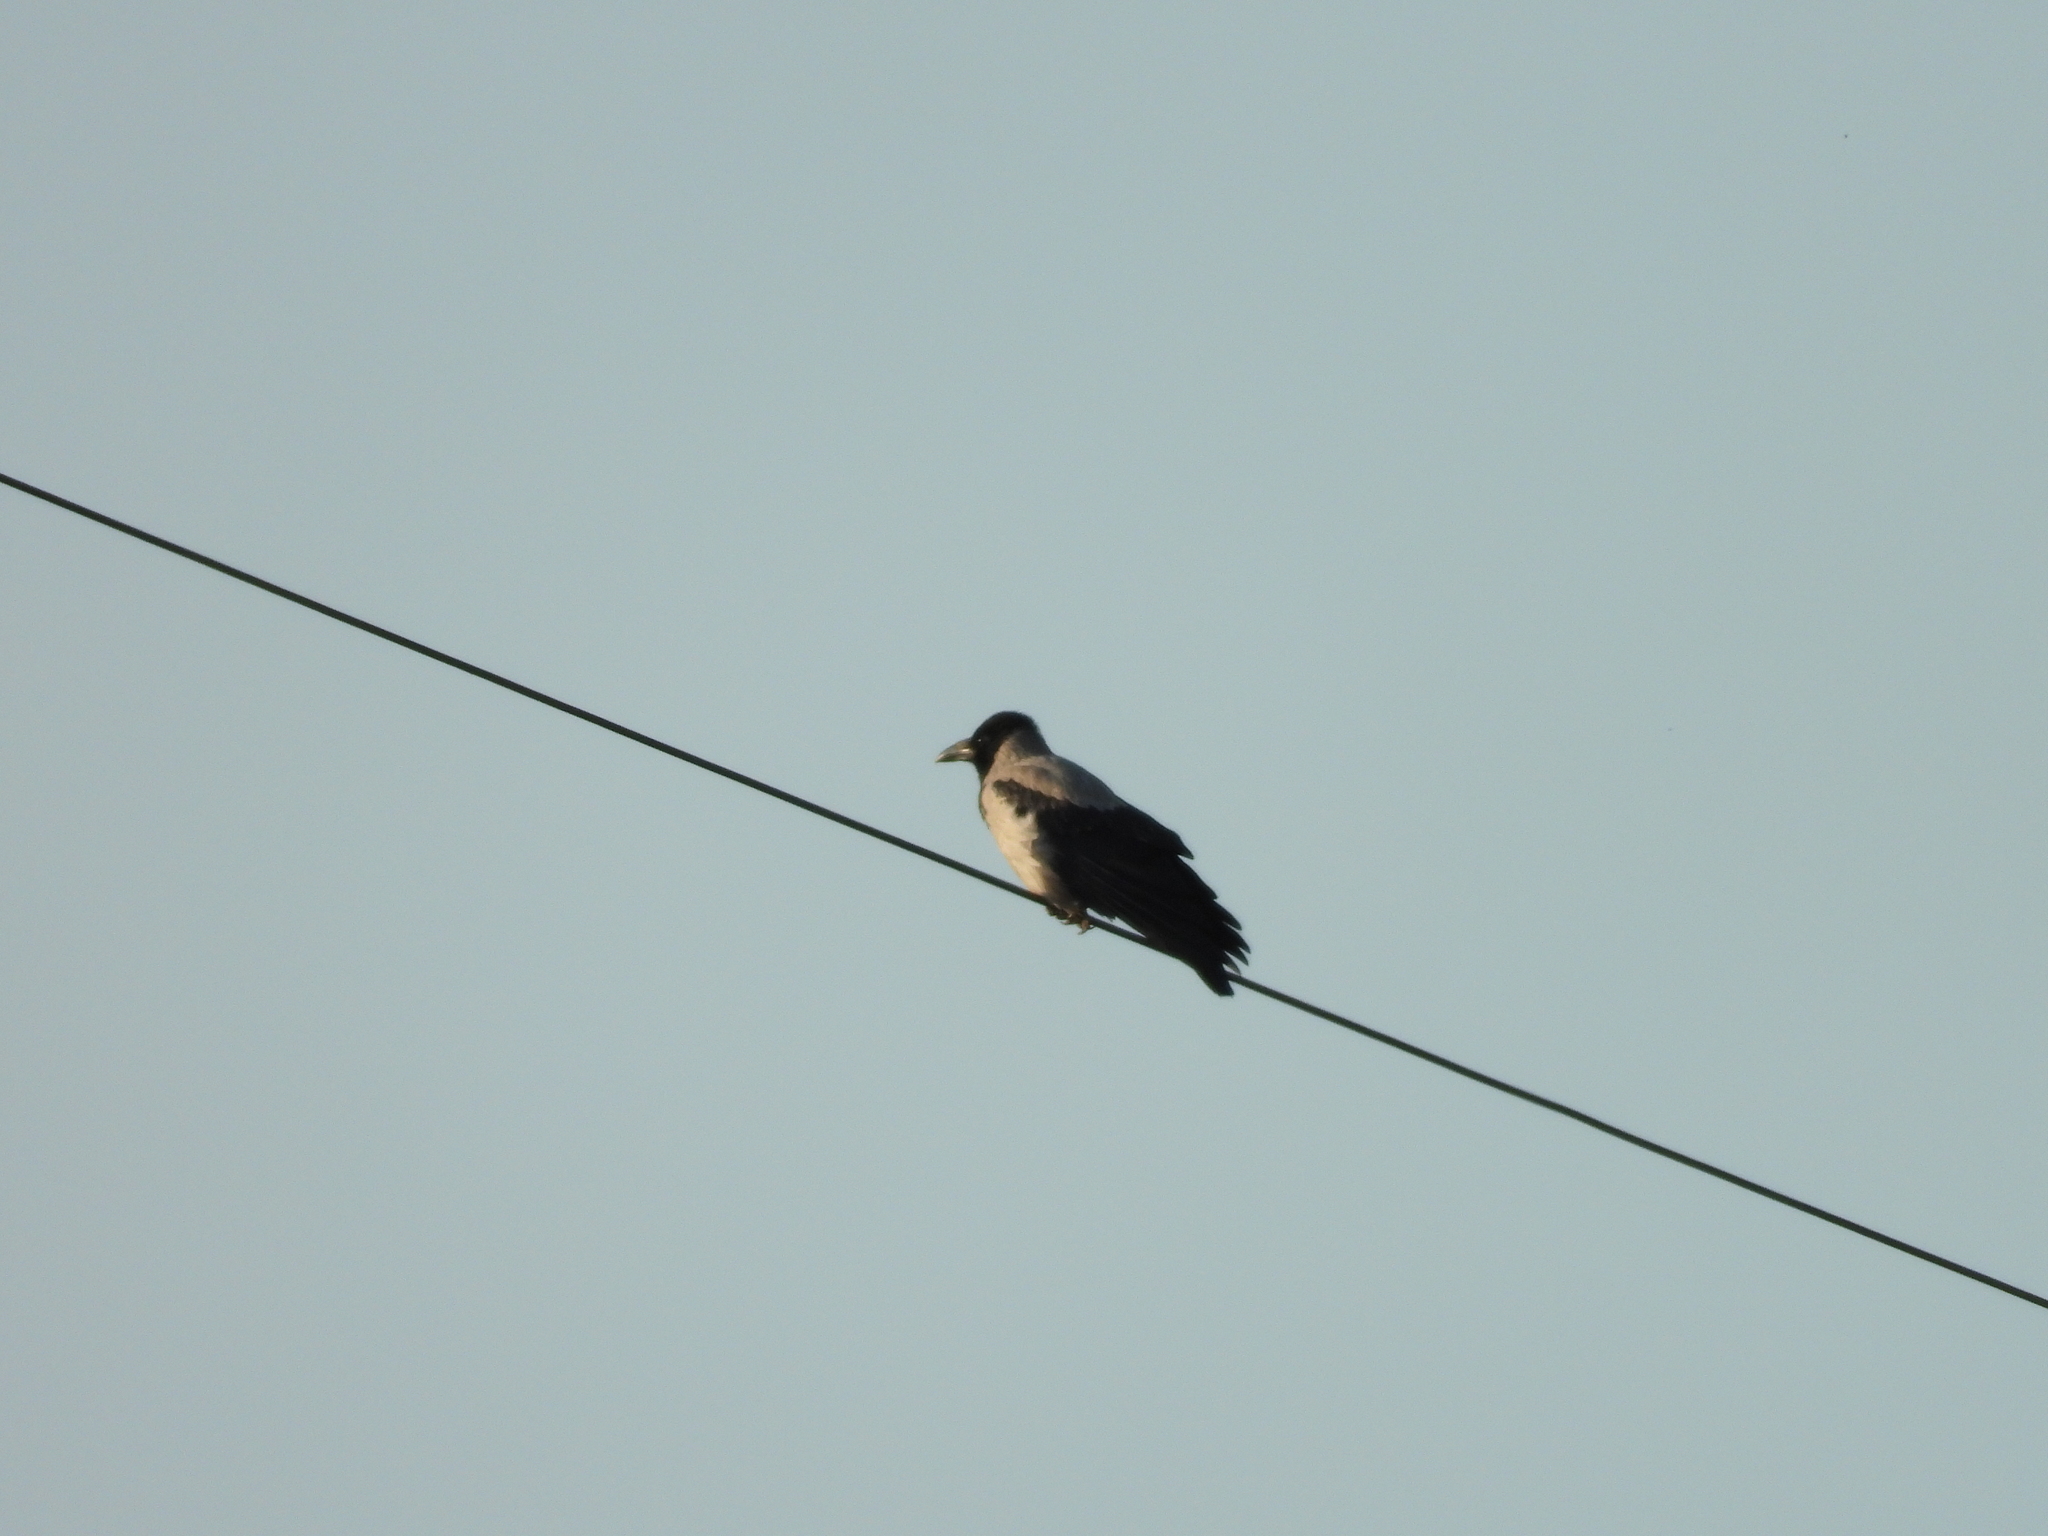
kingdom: Animalia
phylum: Chordata
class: Aves
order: Passeriformes
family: Corvidae
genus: Corvus
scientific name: Corvus cornix
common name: Hooded crow
